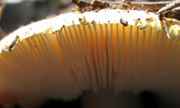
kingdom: Fungi
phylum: Basidiomycota
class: Agaricomycetes
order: Agaricales
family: Amanitaceae
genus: Amanita
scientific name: Amanita aprica
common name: Sunshine amanita
